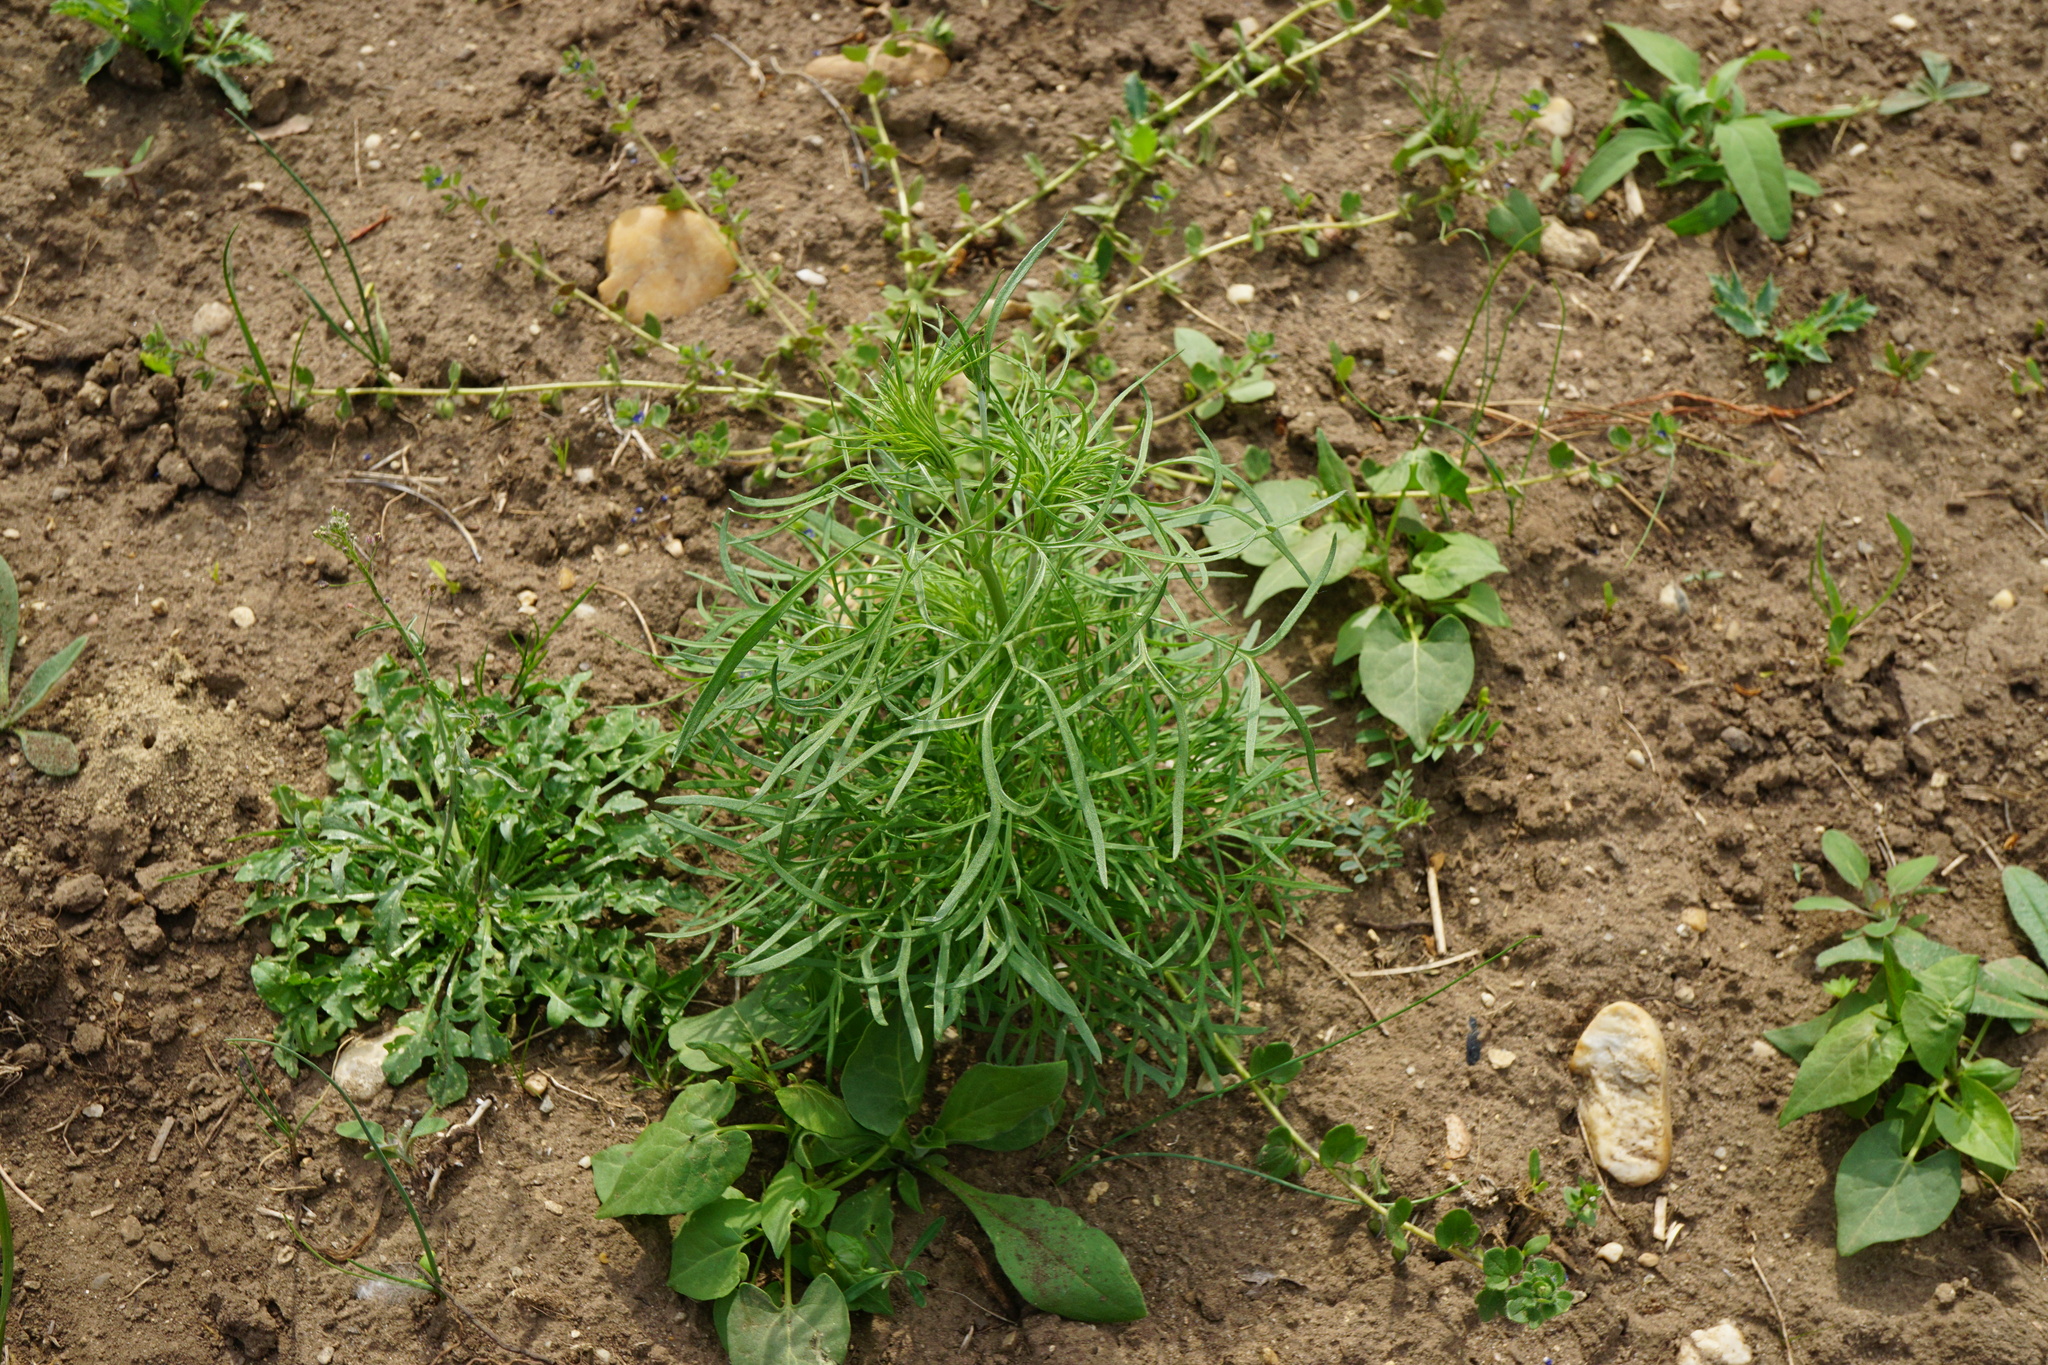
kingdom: Plantae
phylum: Tracheophyta
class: Magnoliopsida
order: Ranunculales
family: Ranunculaceae
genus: Delphinium
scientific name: Delphinium consolida
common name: Branching larkspur
